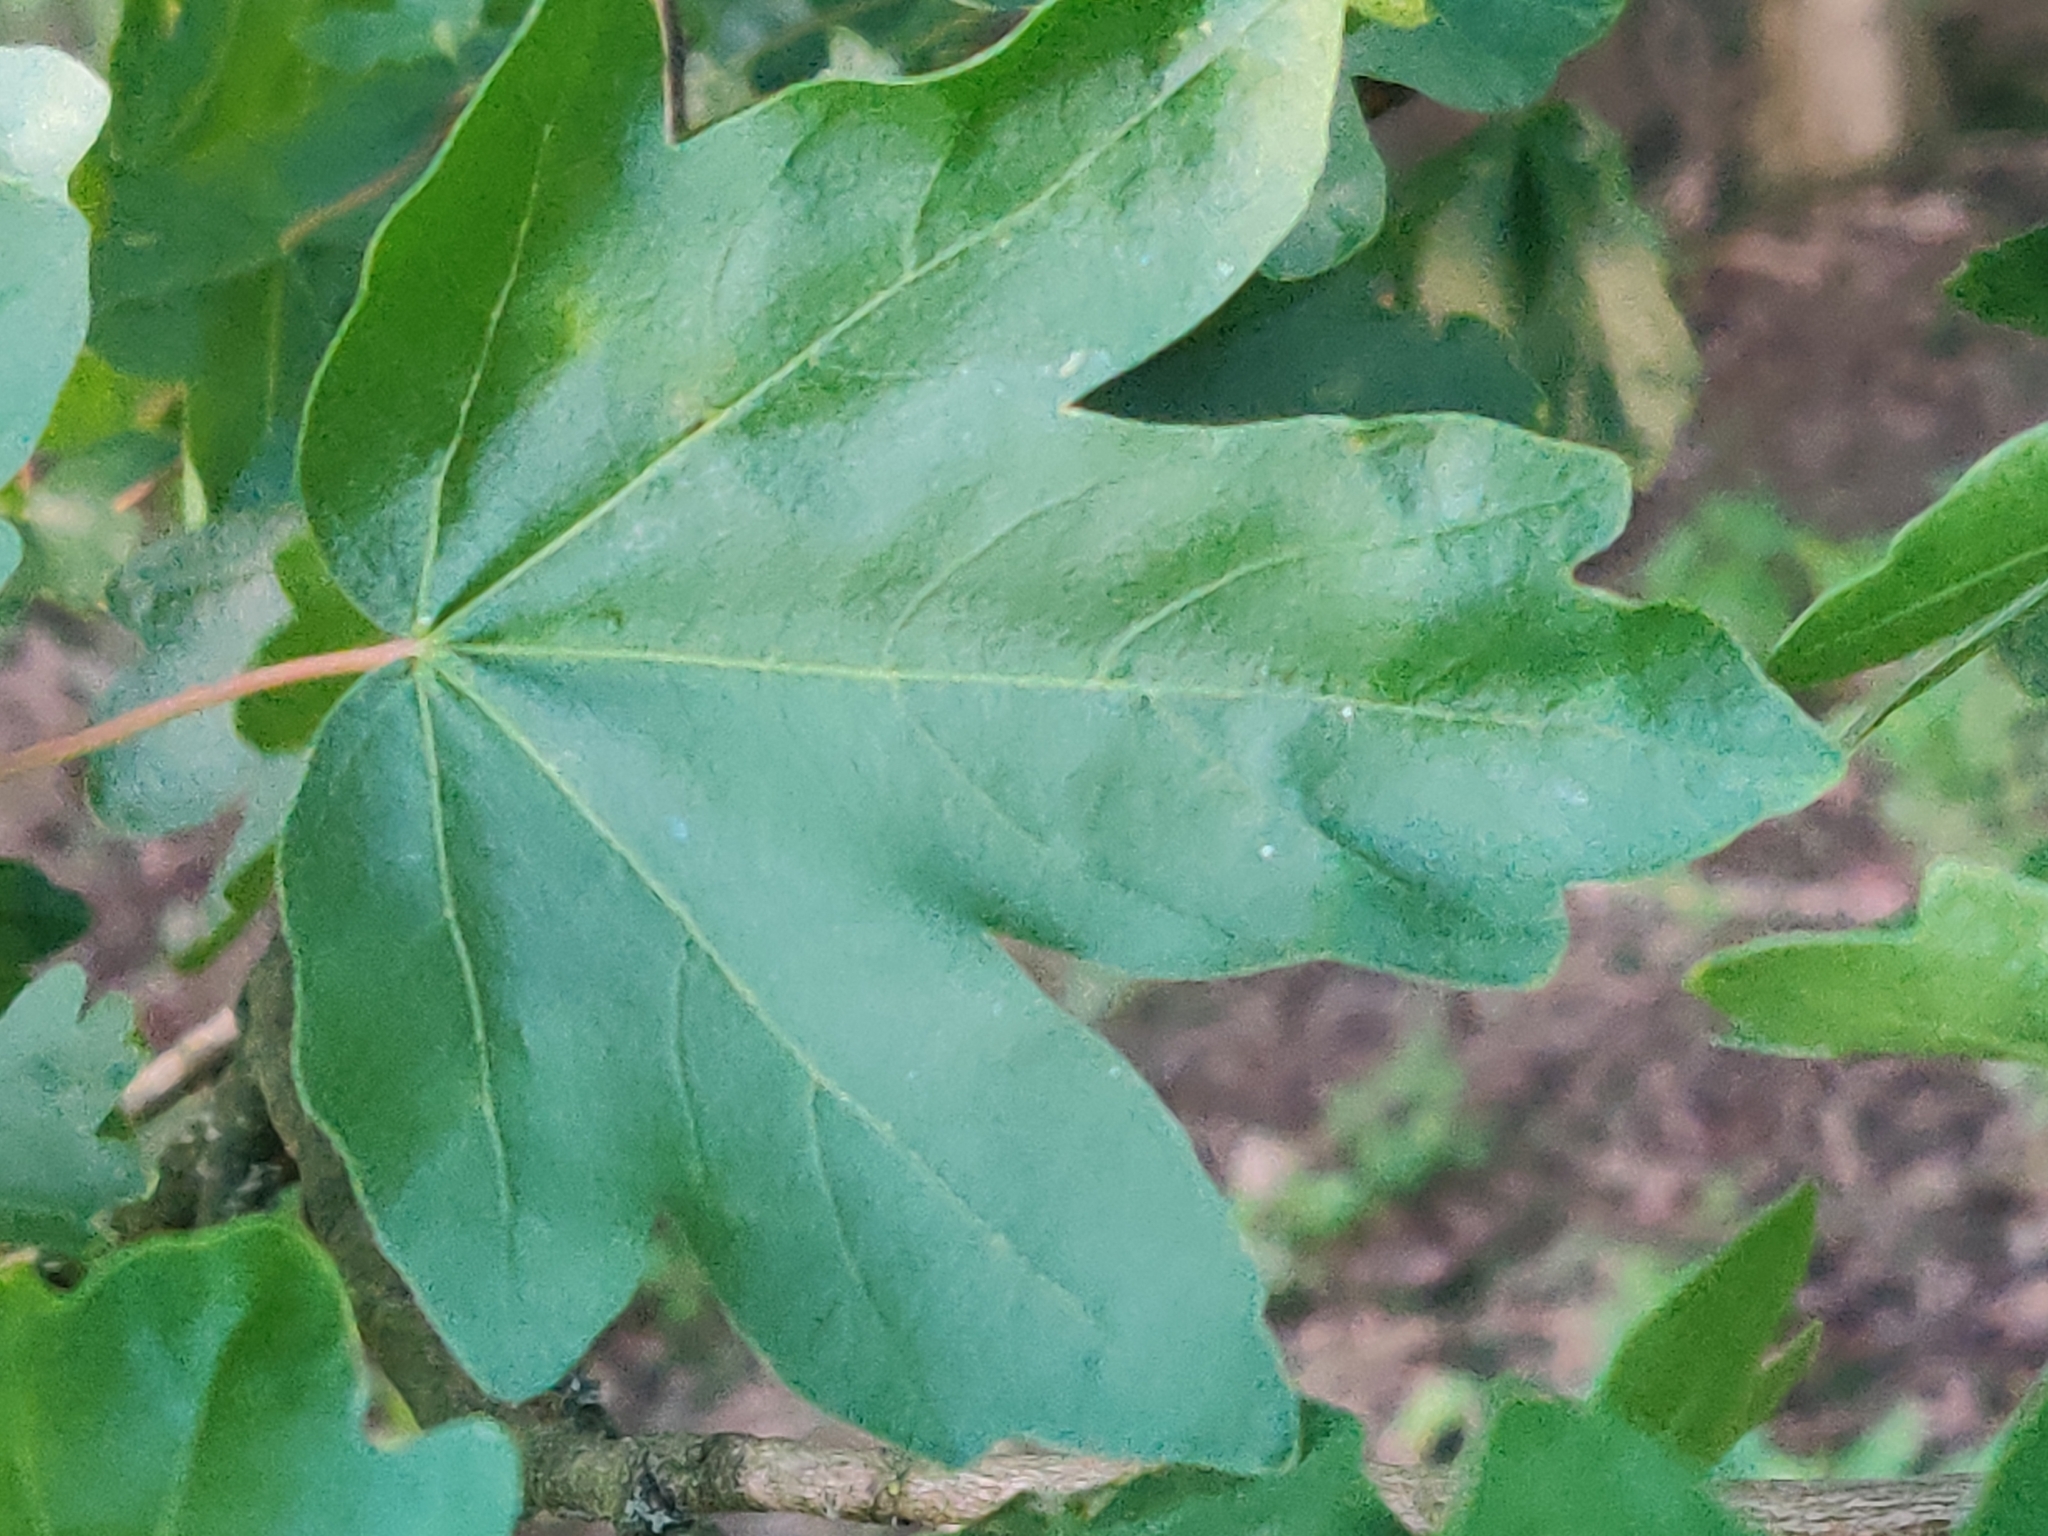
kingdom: Plantae
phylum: Tracheophyta
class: Magnoliopsida
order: Sapindales
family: Sapindaceae
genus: Acer
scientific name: Acer campestre
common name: Field maple
